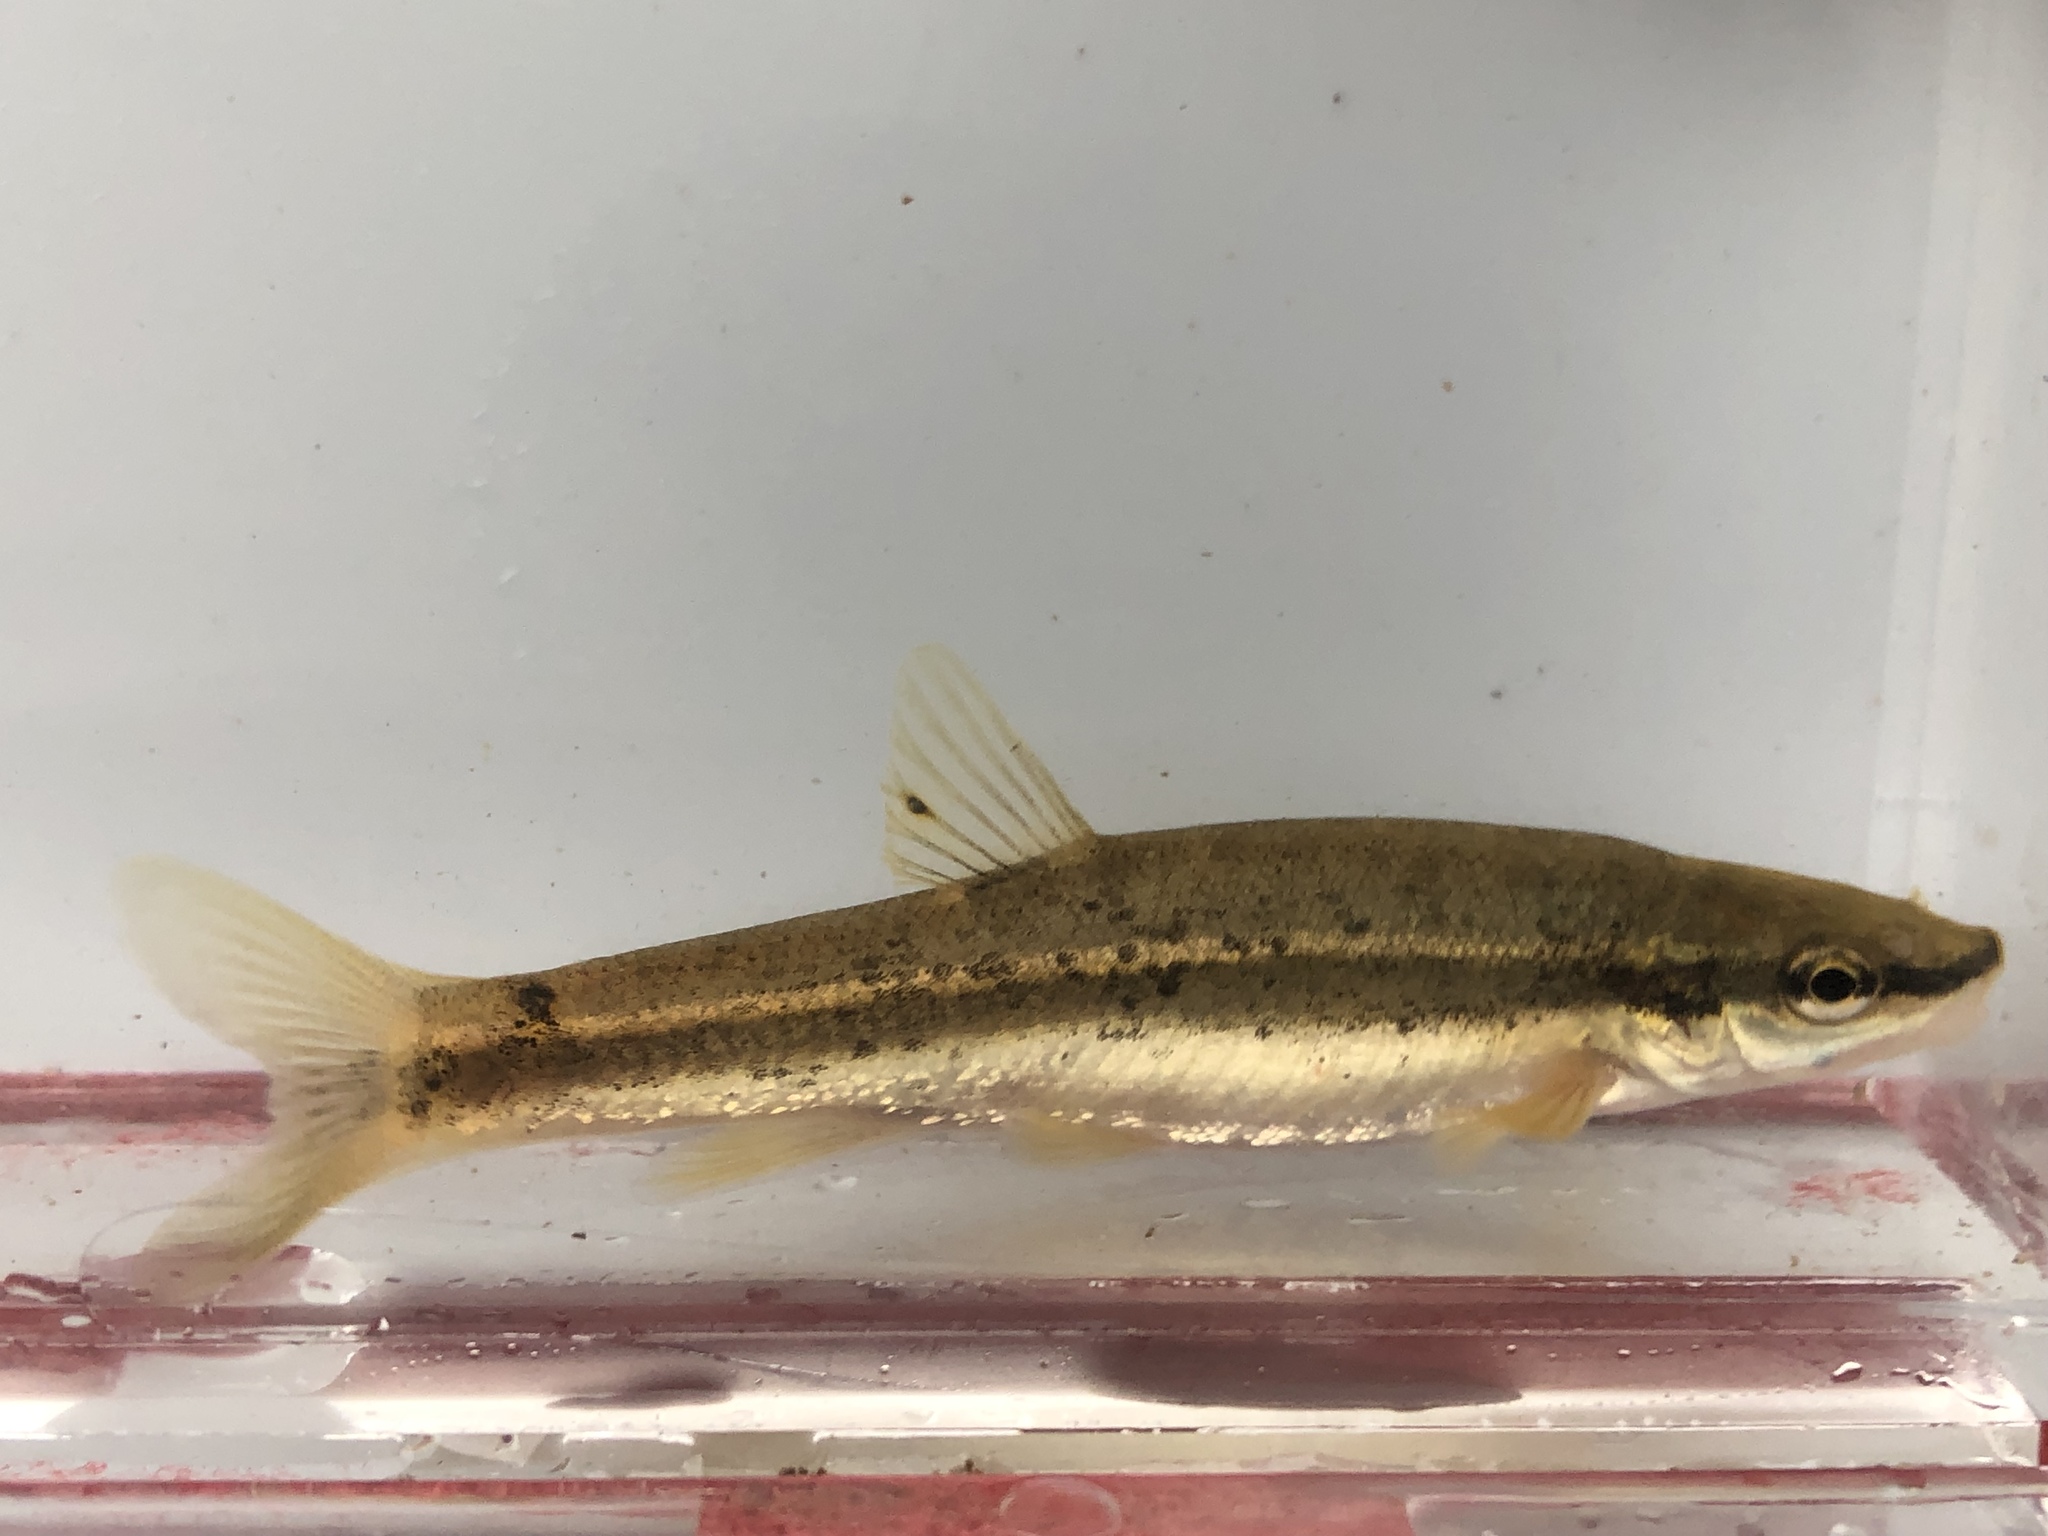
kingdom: Animalia
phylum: Chordata
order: Cypriniformes
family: Cyprinidae
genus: Rhinichthys
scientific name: Rhinichthys atratulus
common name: Eastern blacknose dace
